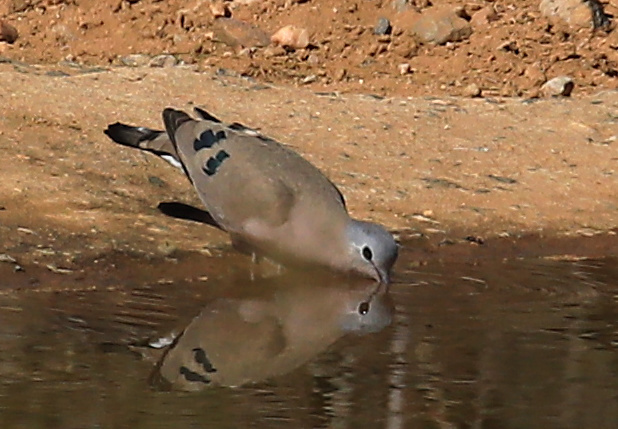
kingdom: Animalia
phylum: Chordata
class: Aves
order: Columbiformes
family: Columbidae
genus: Turtur
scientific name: Turtur chalcospilos
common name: Emerald-spotted wood dove
